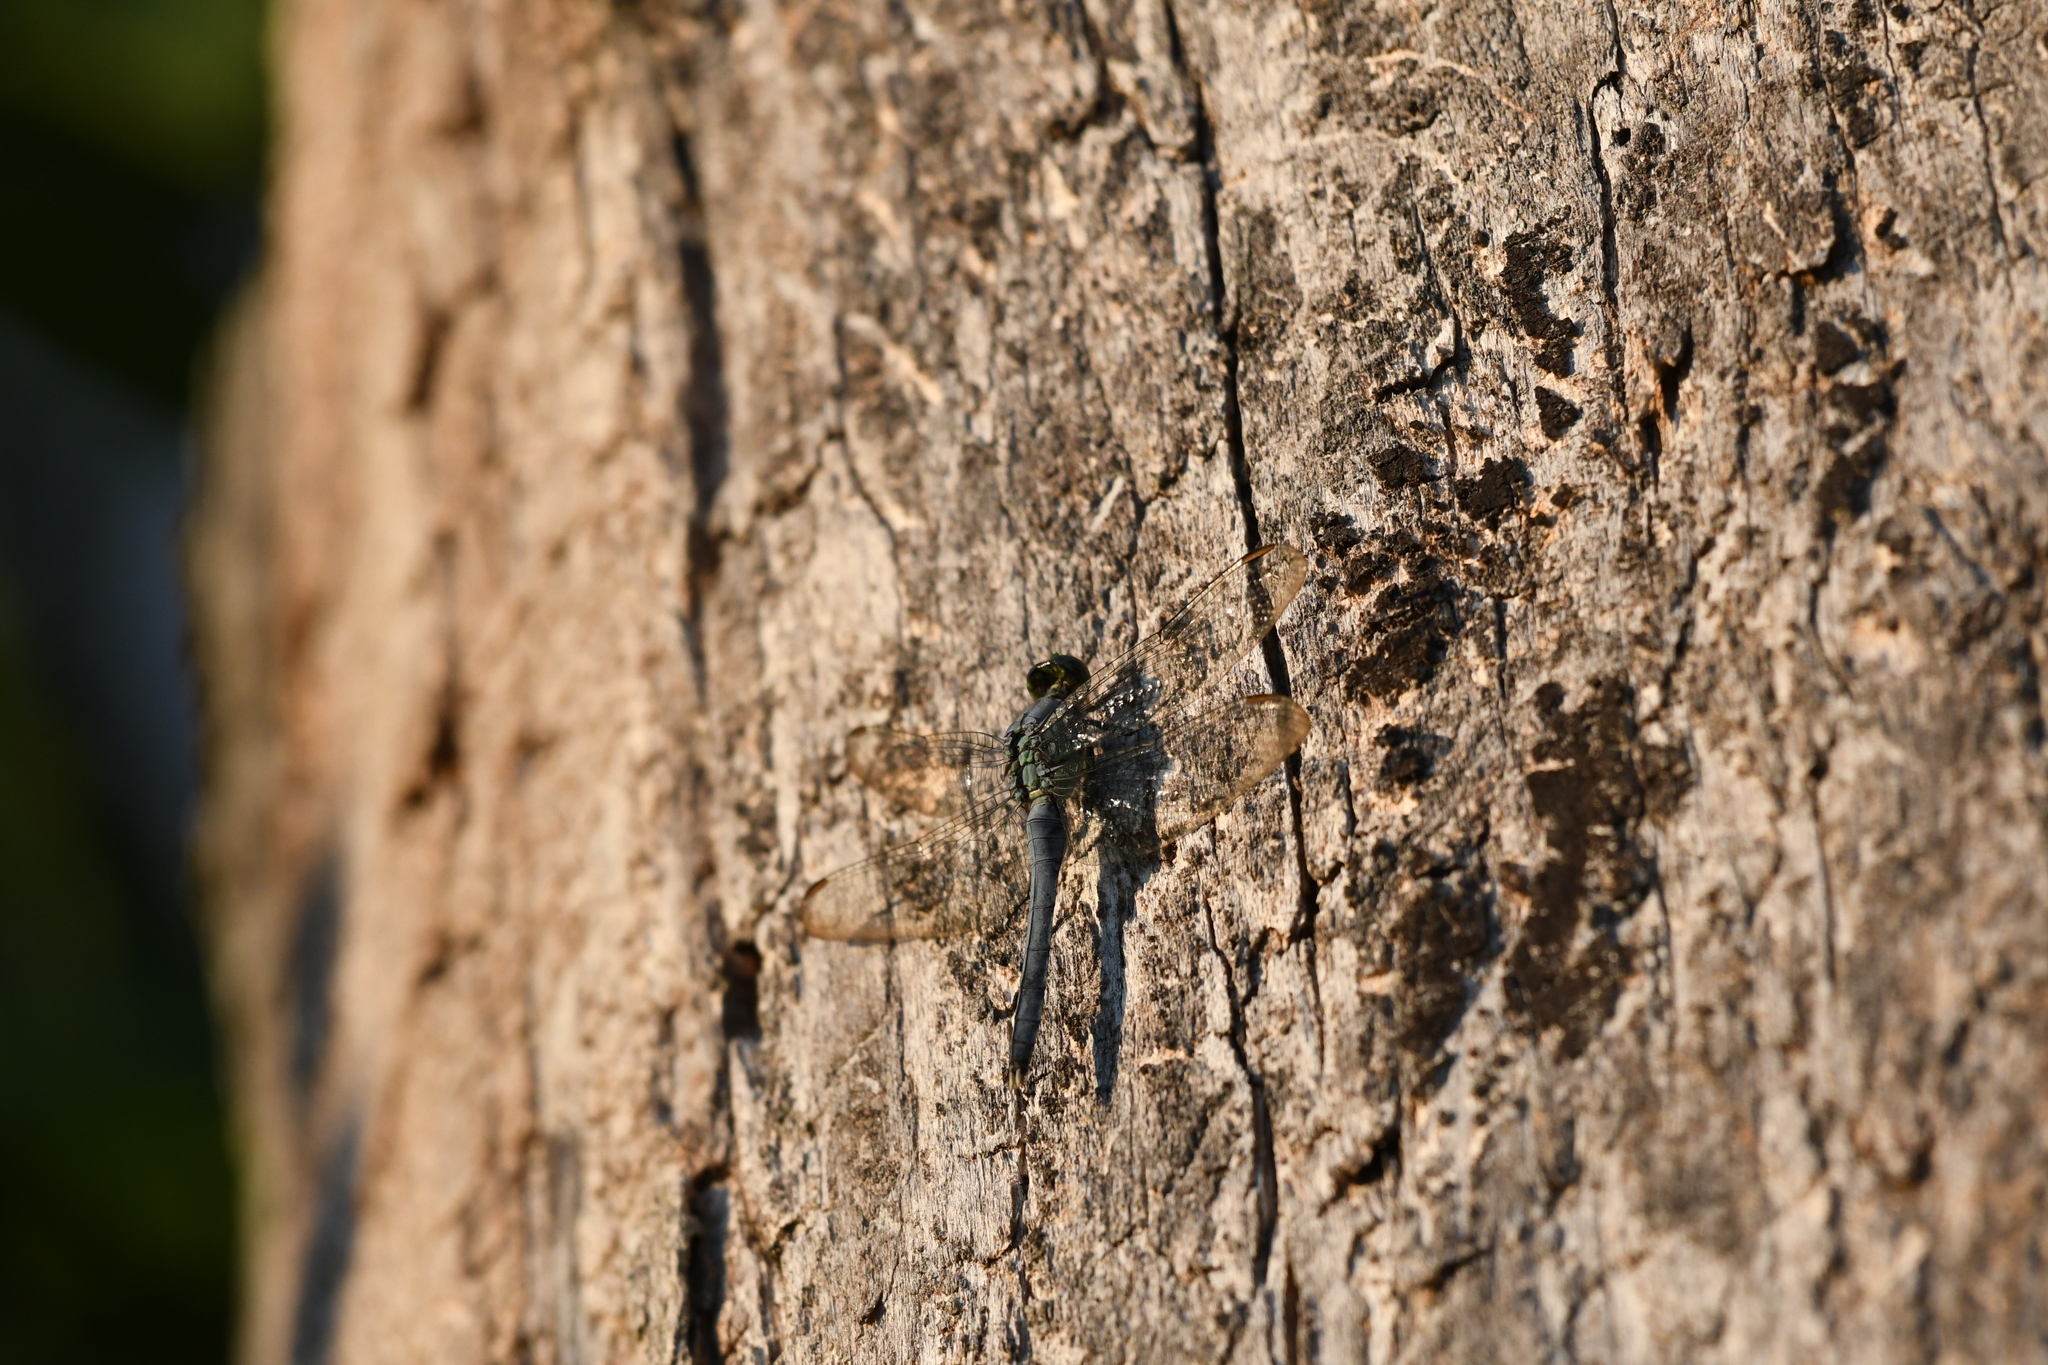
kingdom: Animalia
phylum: Arthropoda
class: Insecta
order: Odonata
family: Libellulidae
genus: Erythemis
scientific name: Erythemis simplicicollis
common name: Eastern pondhawk
